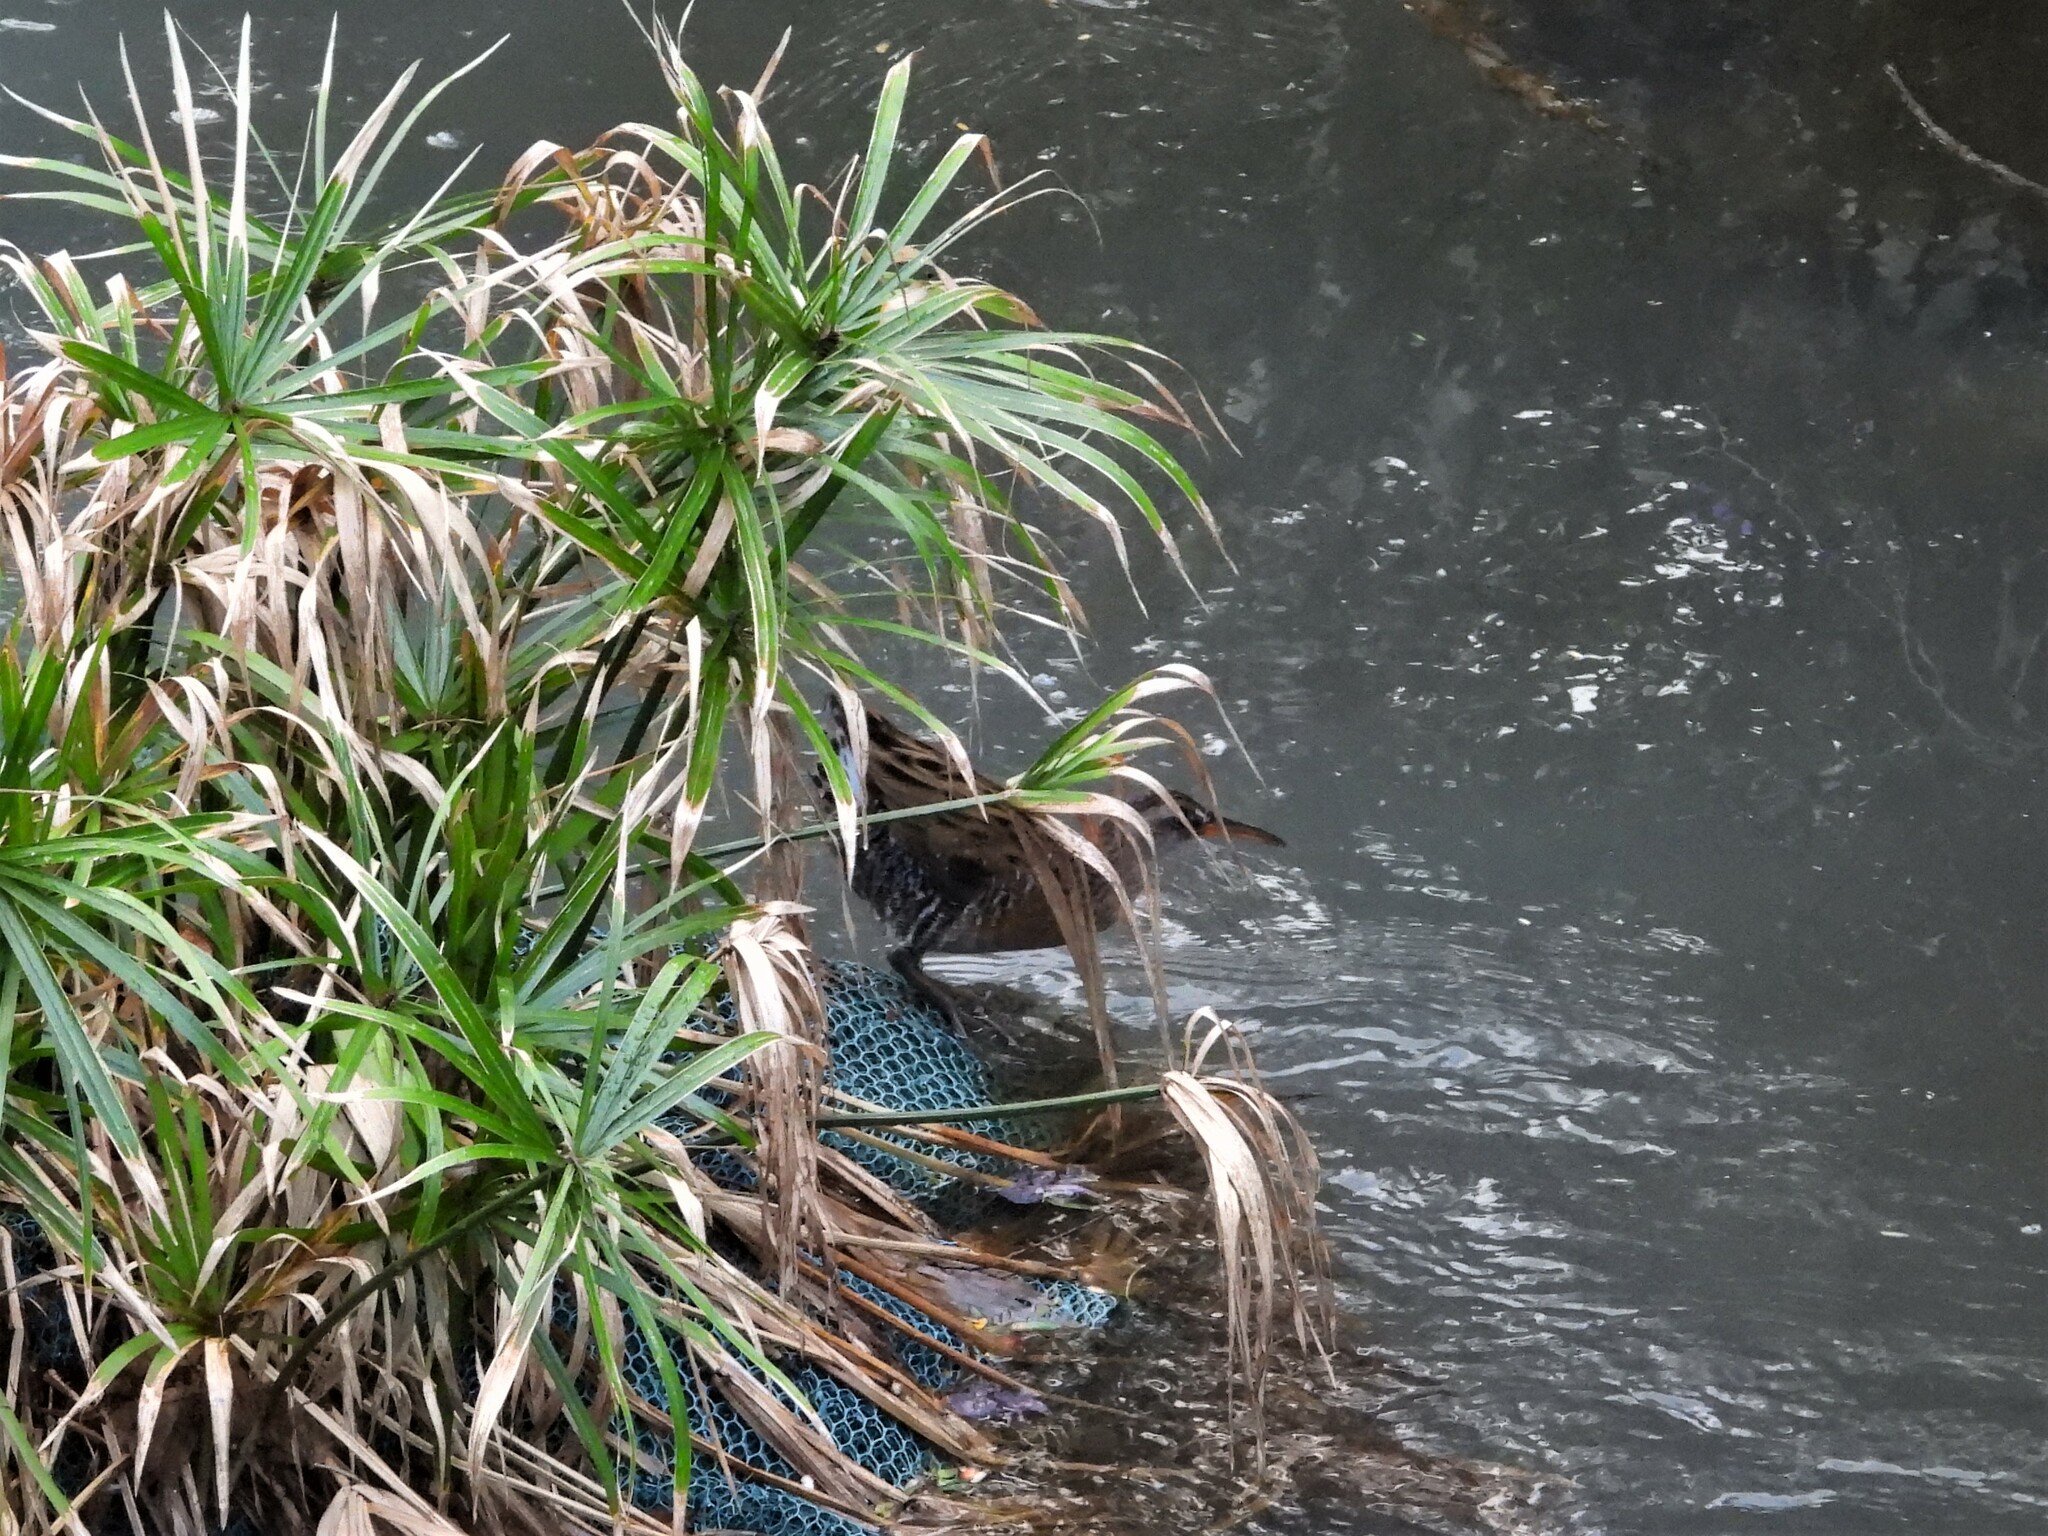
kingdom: Animalia
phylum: Chordata
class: Aves
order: Gruiformes
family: Rallidae
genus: Rallus
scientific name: Rallus indicus
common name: Brown-cheeked rail
